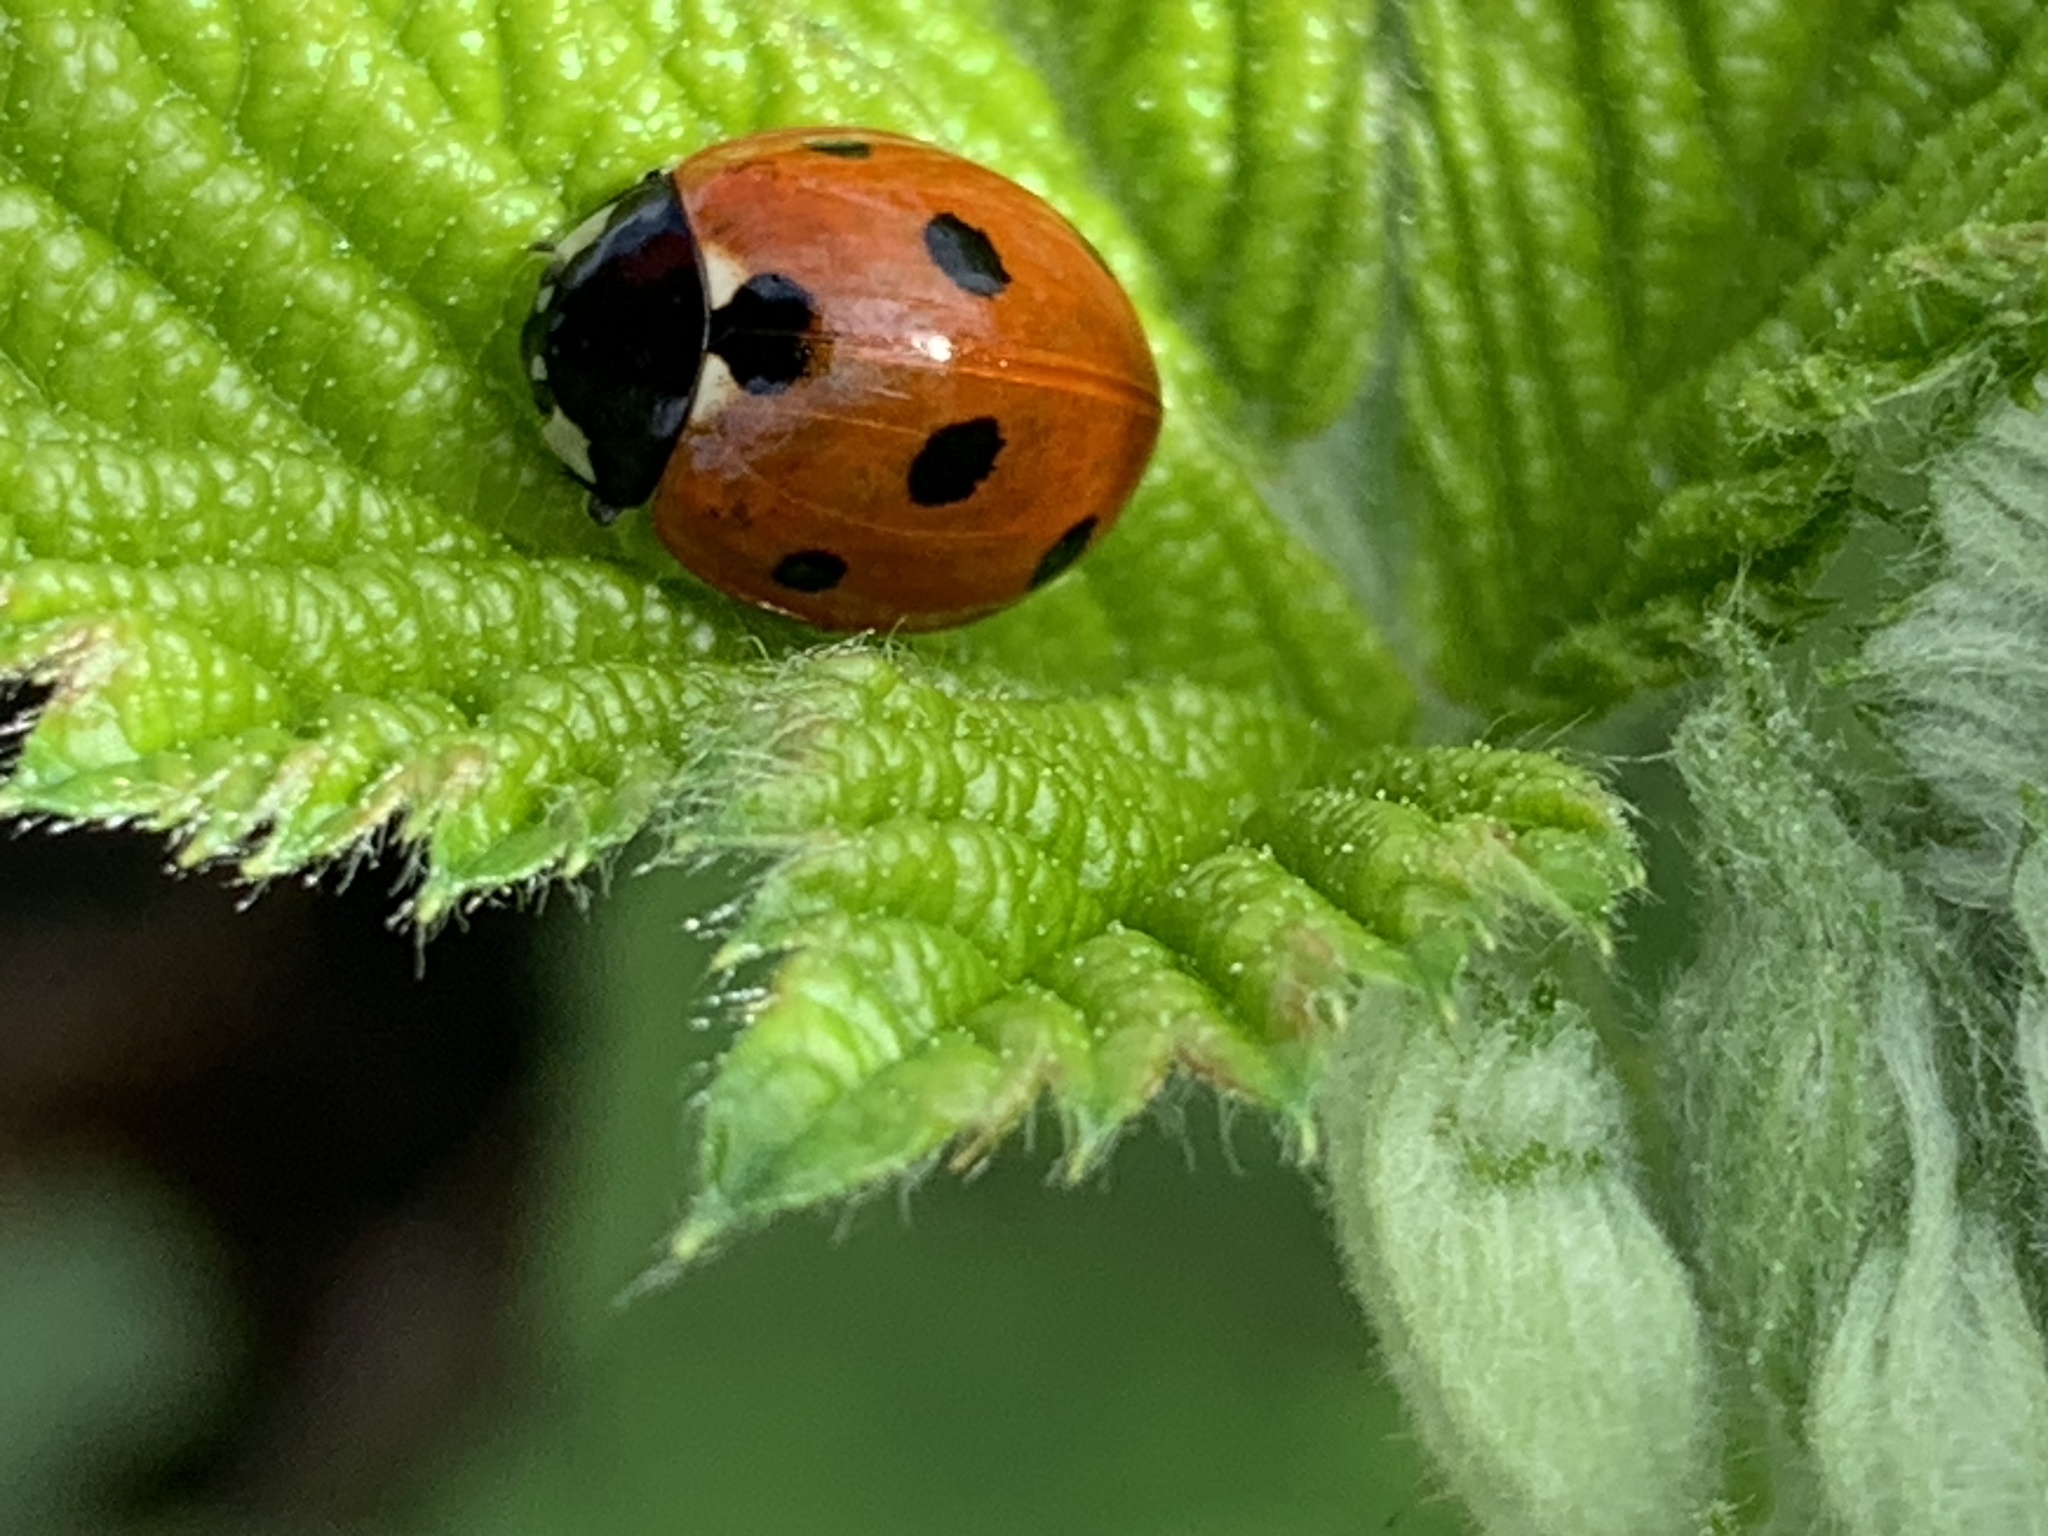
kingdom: Animalia
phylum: Arthropoda
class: Insecta
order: Coleoptera
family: Coccinellidae
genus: Coccinella
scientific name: Coccinella septempunctata
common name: Sevenspotted lady beetle
